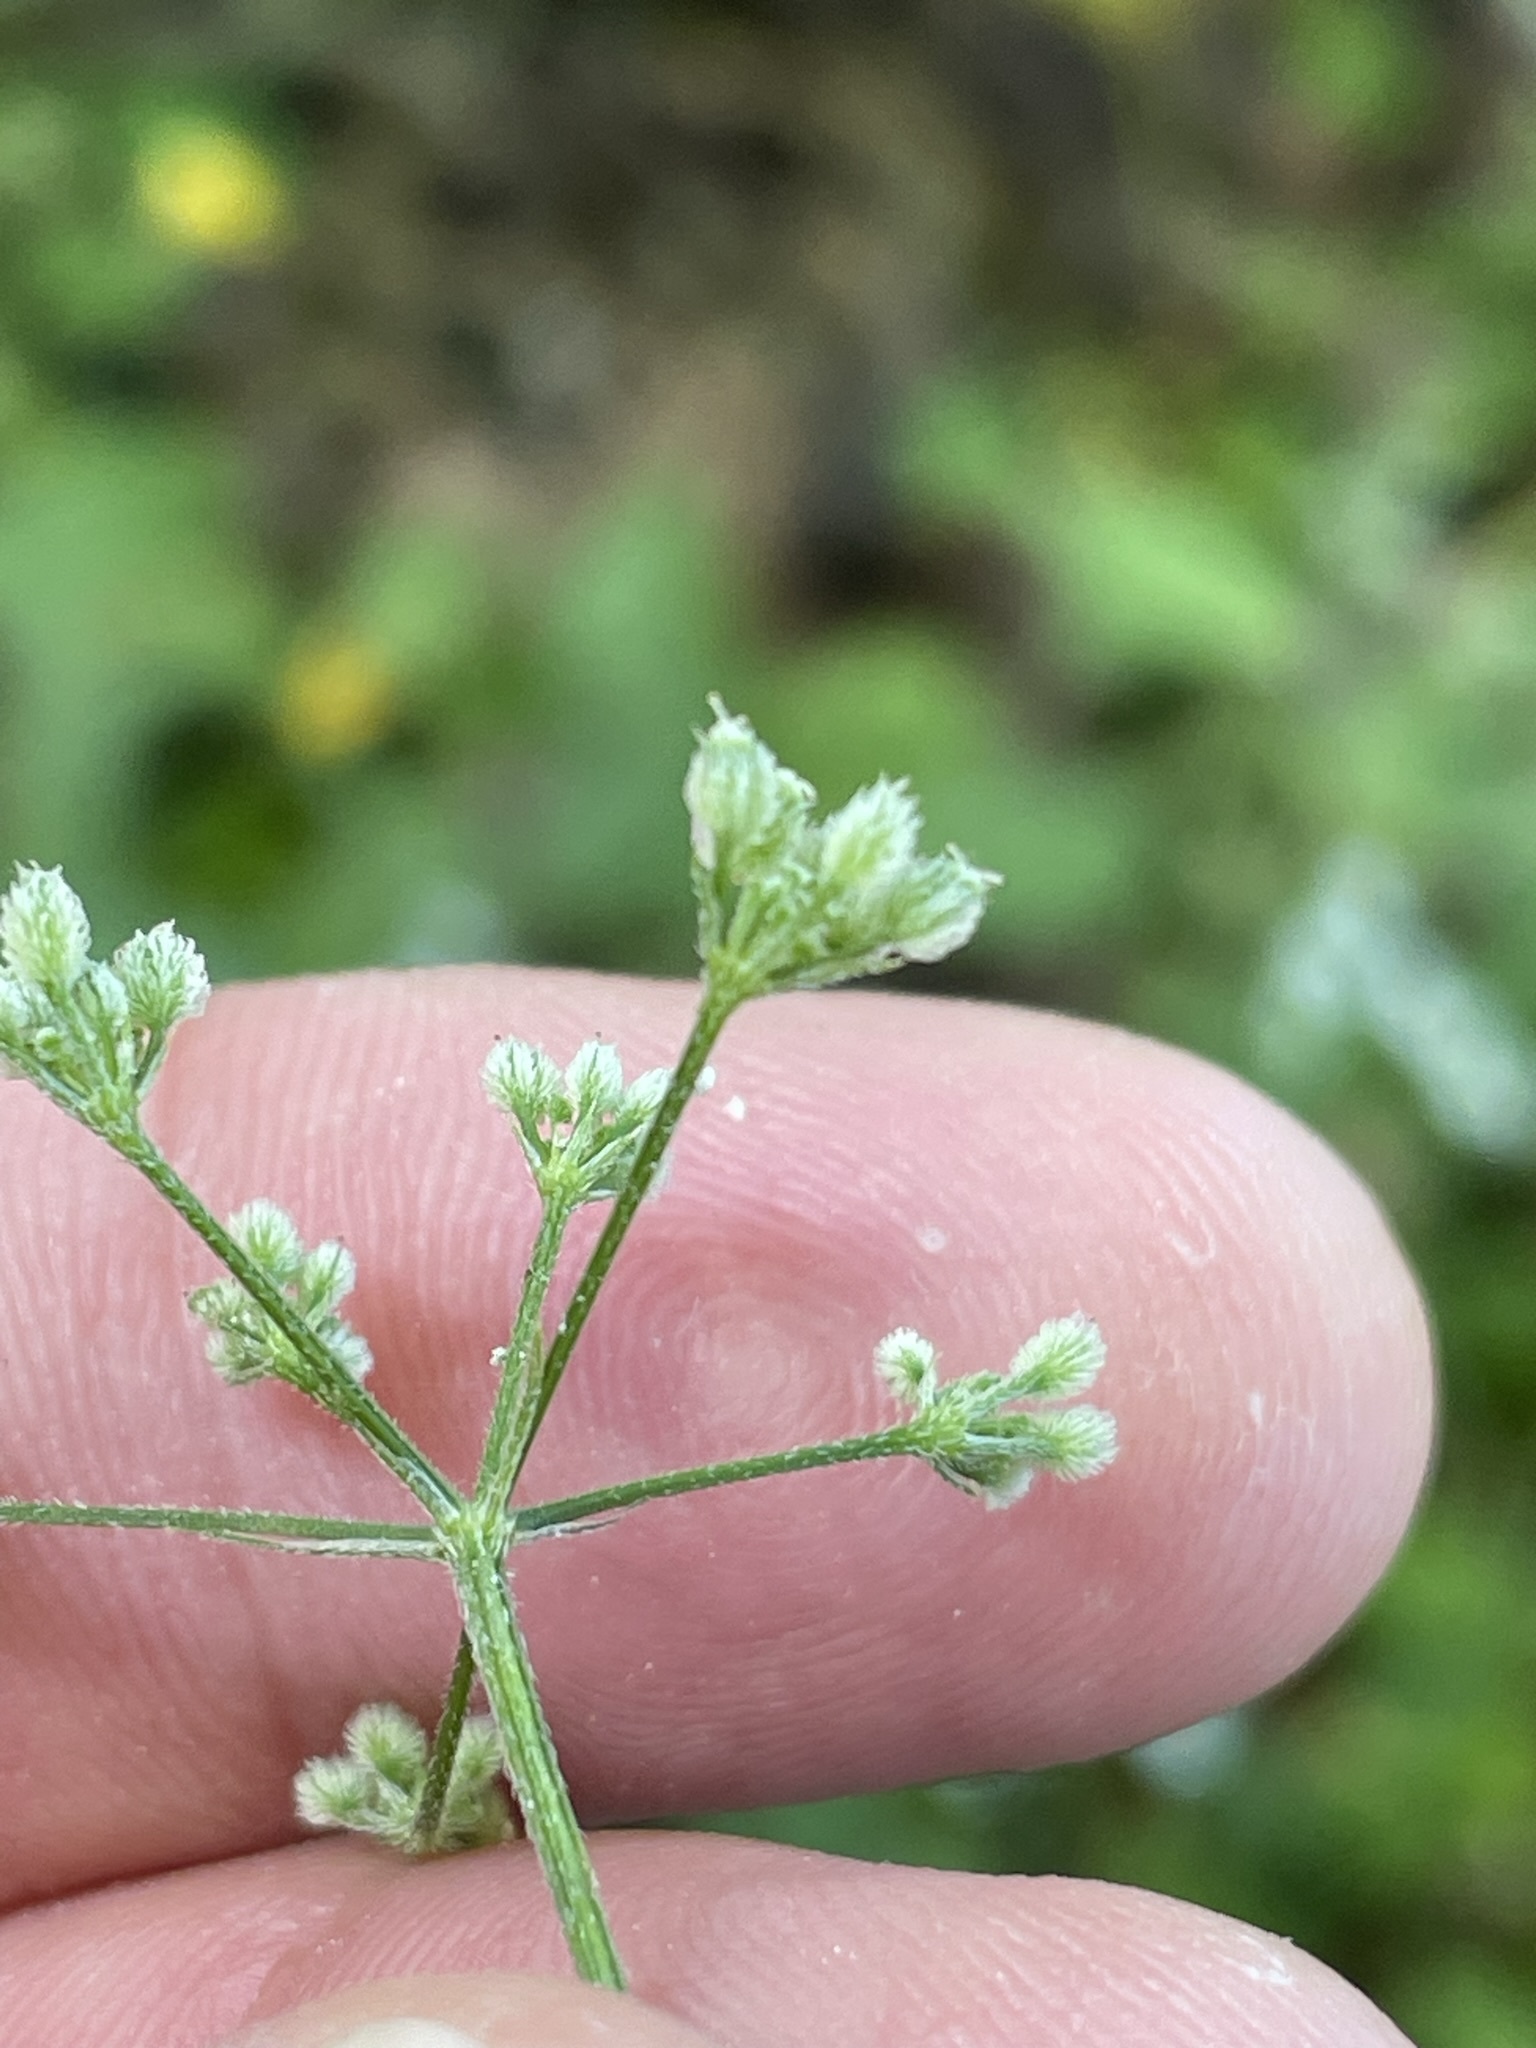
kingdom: Plantae
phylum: Tracheophyta
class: Magnoliopsida
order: Apiales
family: Apiaceae
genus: Torilis
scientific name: Torilis japonica
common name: Upright hedge-parsley
